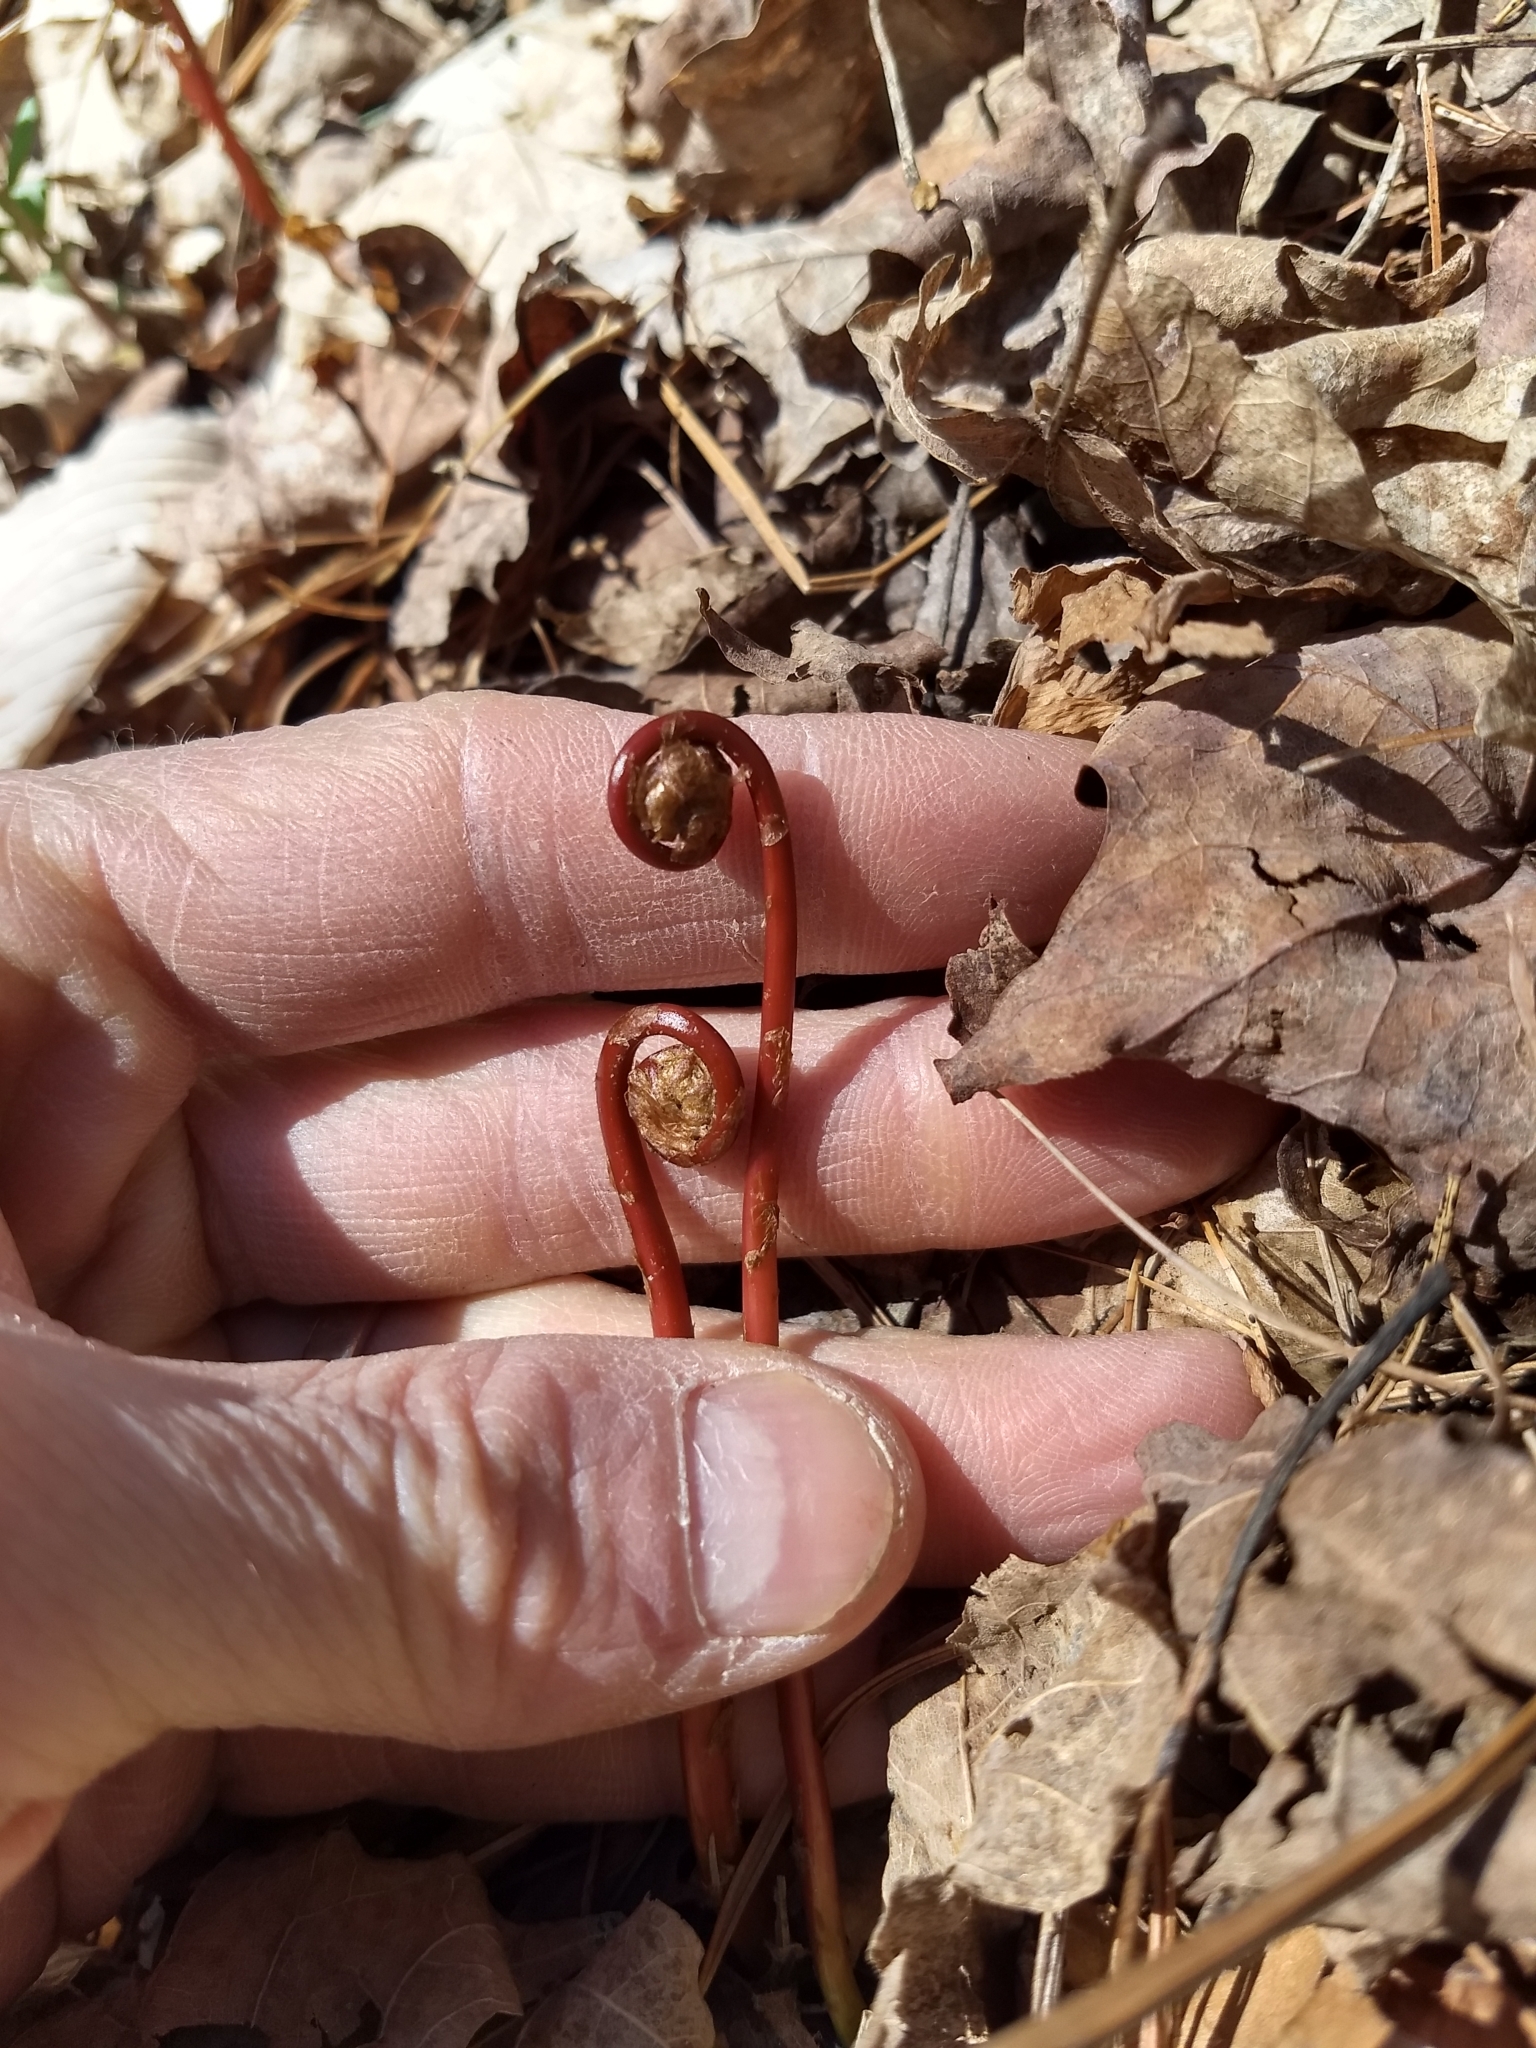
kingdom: Plantae
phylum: Tracheophyta
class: Polypodiopsida
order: Polypodiales
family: Pteridaceae
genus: Adiantum
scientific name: Adiantum pedatum
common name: Five-finger fern
